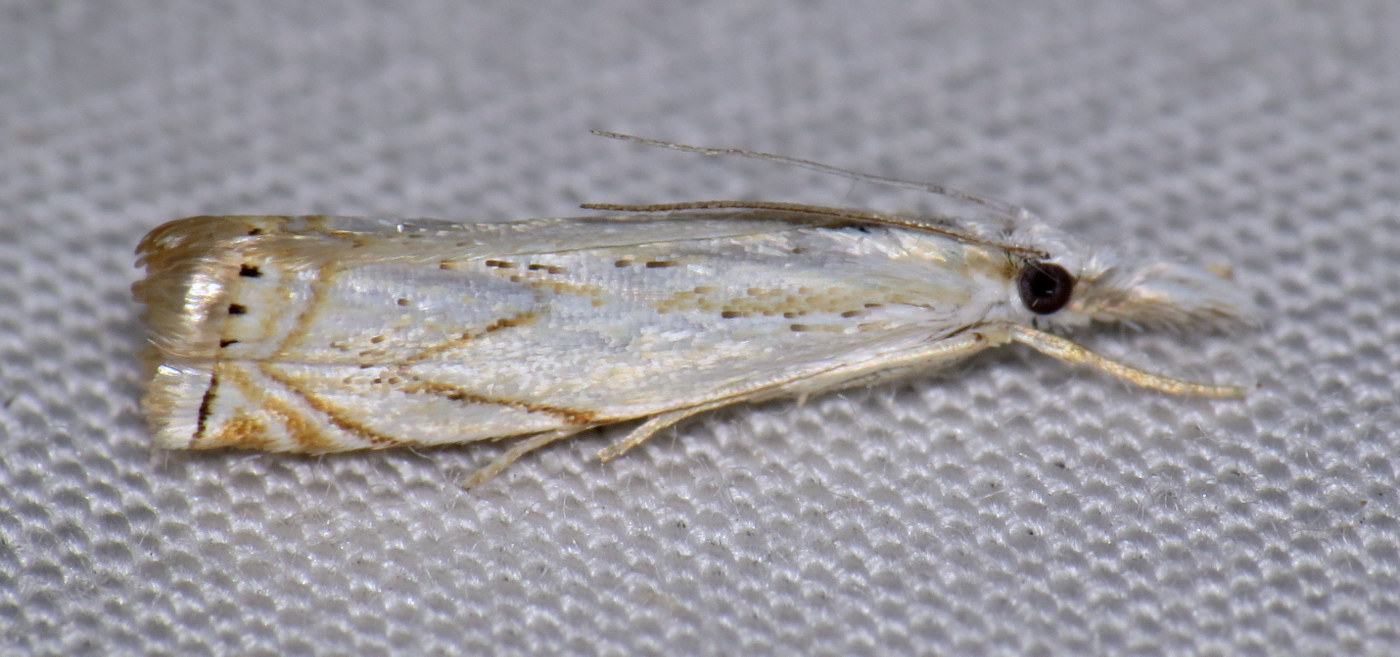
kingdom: Animalia
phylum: Arthropoda
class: Insecta
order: Lepidoptera
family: Crambidae
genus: Crambus
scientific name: Crambus albellus
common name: Small white grass-veneer
